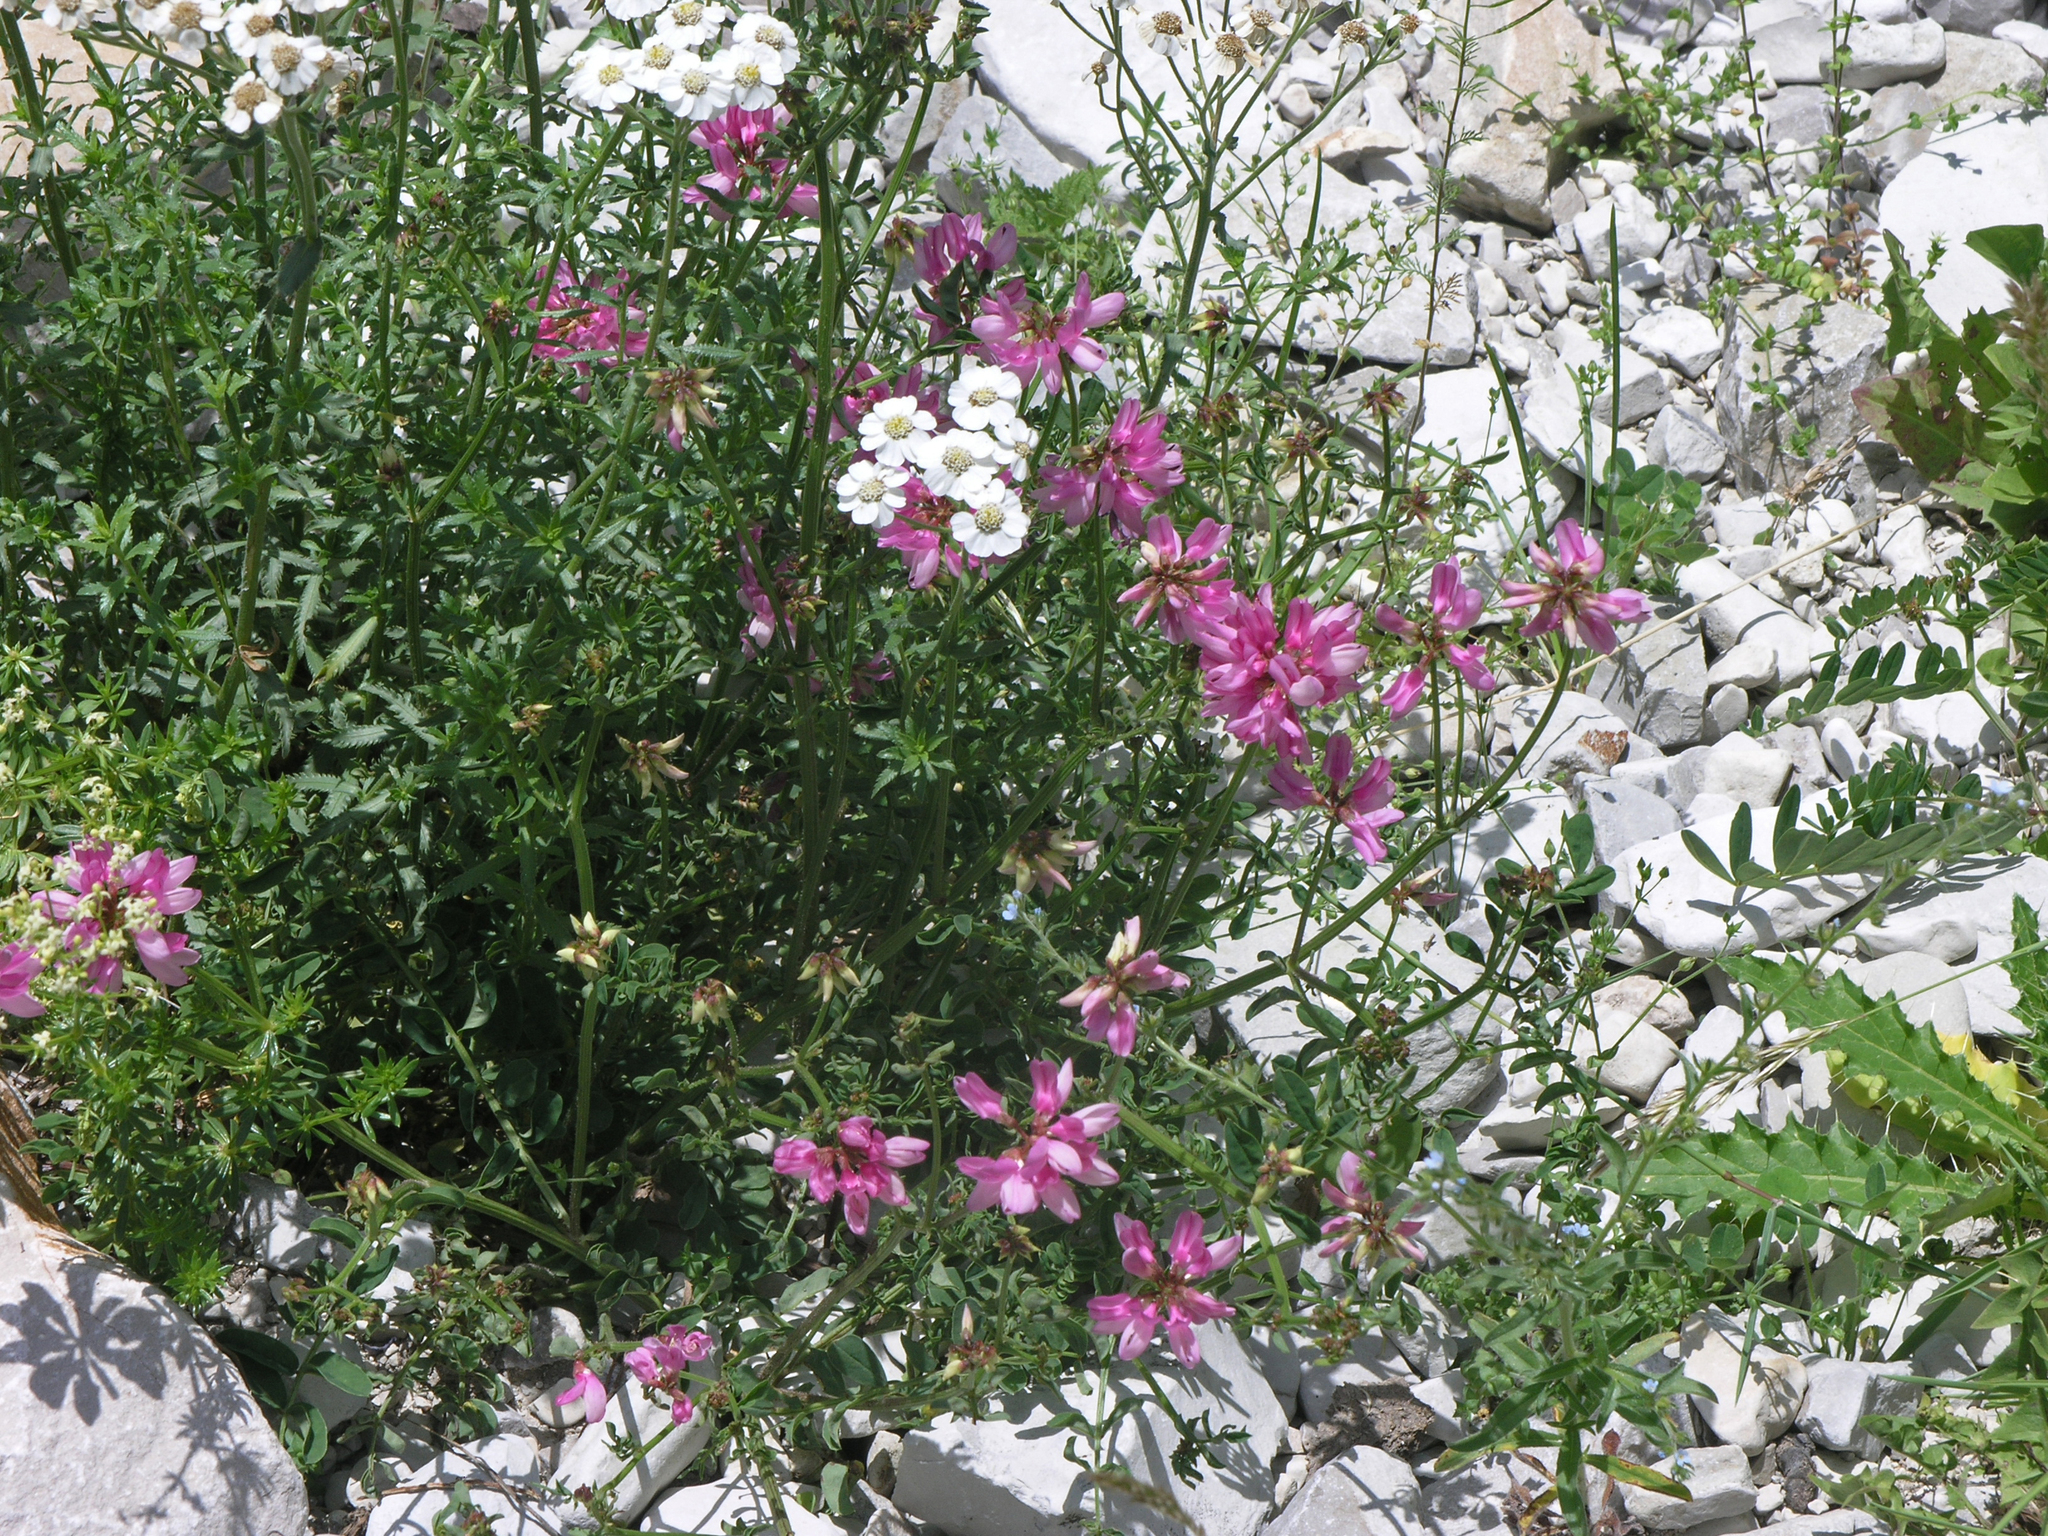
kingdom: Plantae
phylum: Tracheophyta
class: Magnoliopsida
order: Asterales
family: Asteraceae
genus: Achillea
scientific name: Achillea ptarmicifolia
